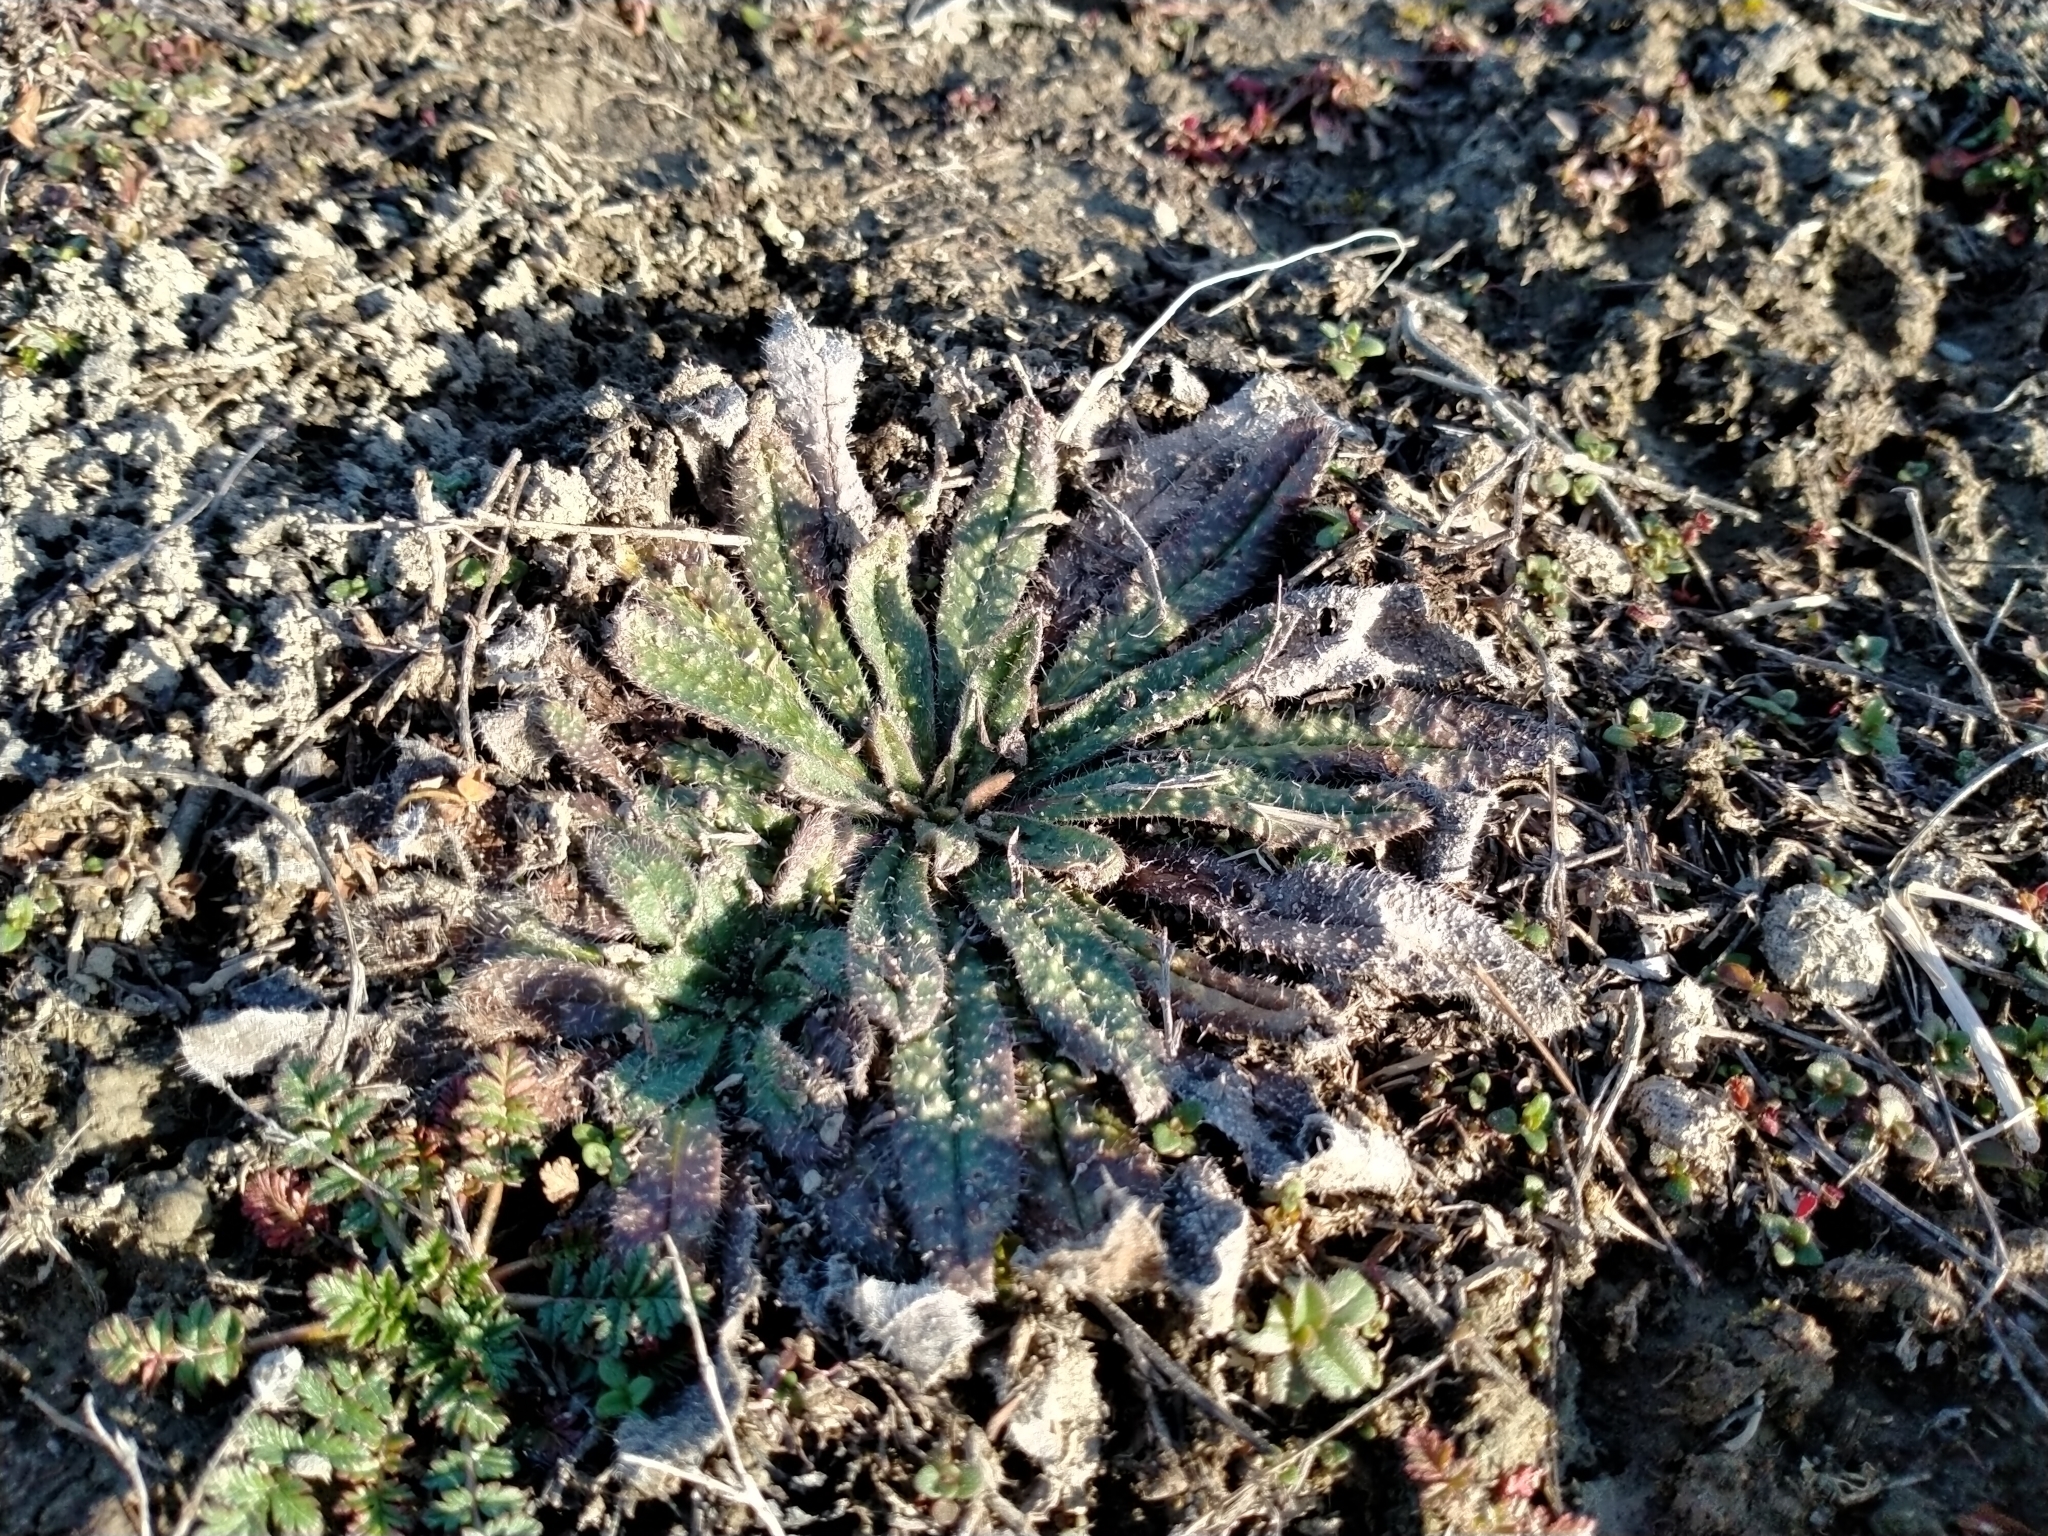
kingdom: Plantae
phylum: Tracheophyta
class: Magnoliopsida
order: Boraginales
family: Boraginaceae
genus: Echium
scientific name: Echium vulgare
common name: Common viper's bugloss
